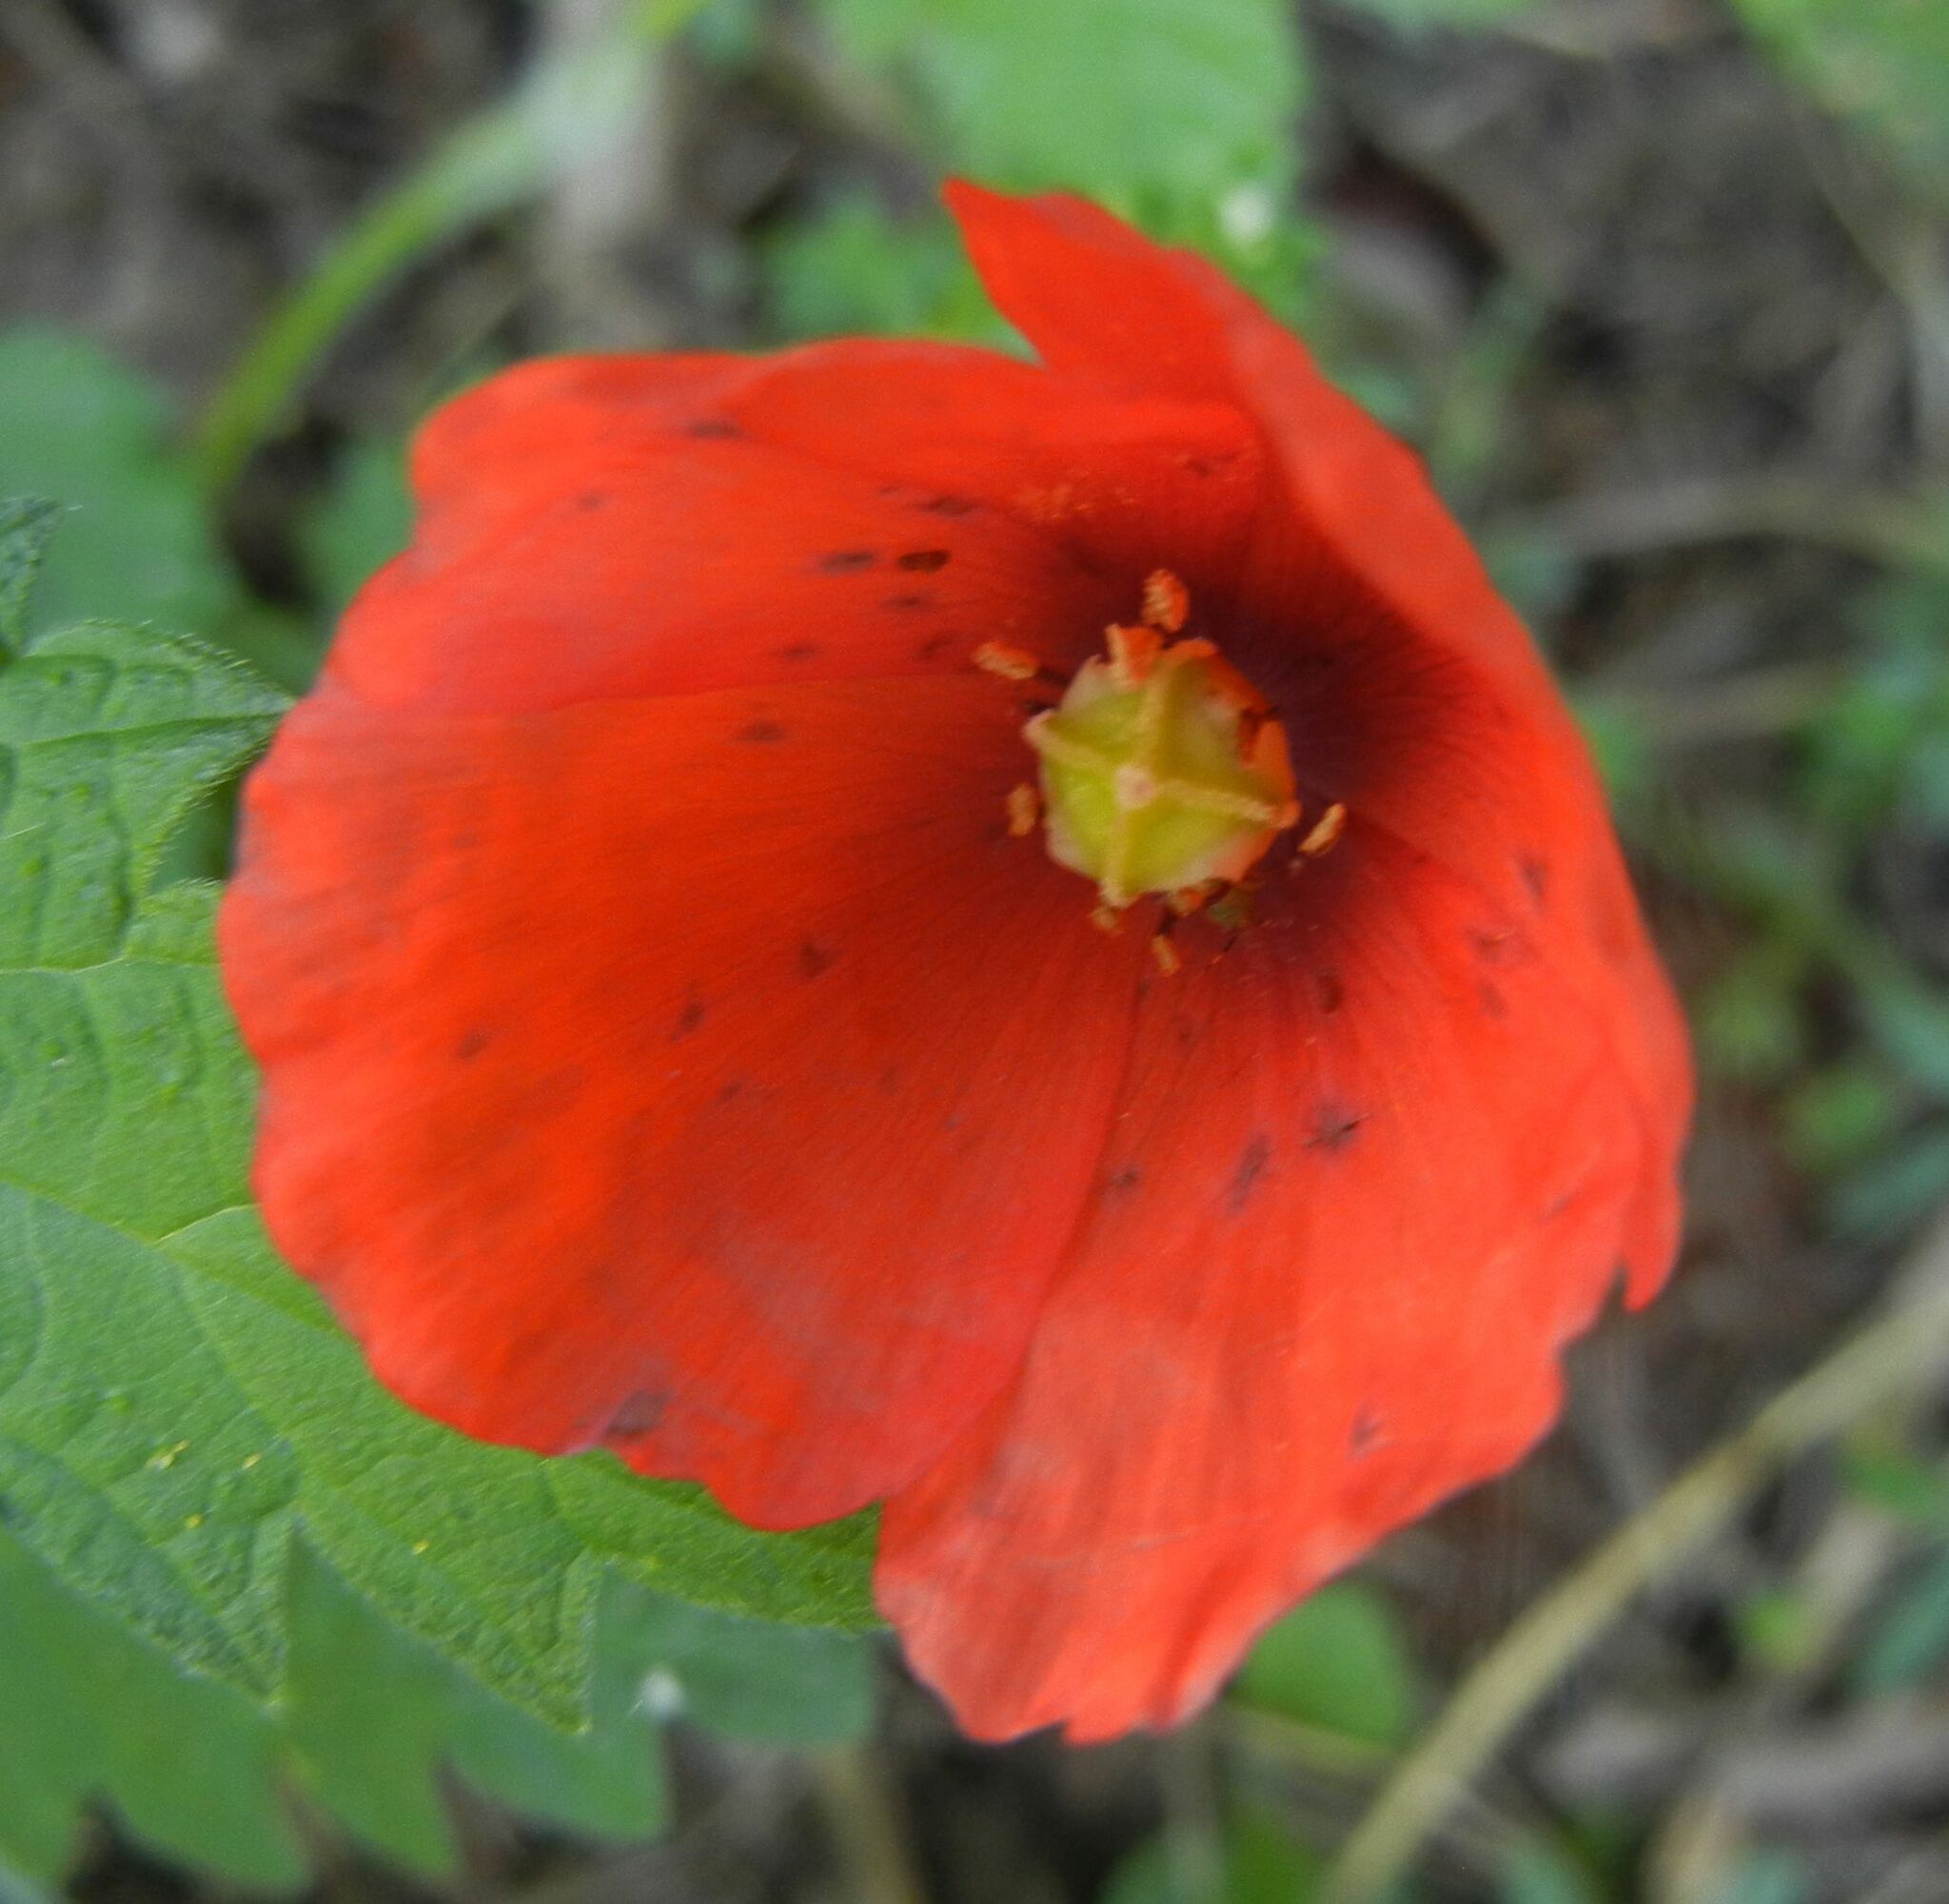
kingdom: Plantae
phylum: Tracheophyta
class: Magnoliopsida
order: Ranunculales
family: Papaveraceae
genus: Papaver
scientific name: Papaver somniferum
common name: Opium poppy
